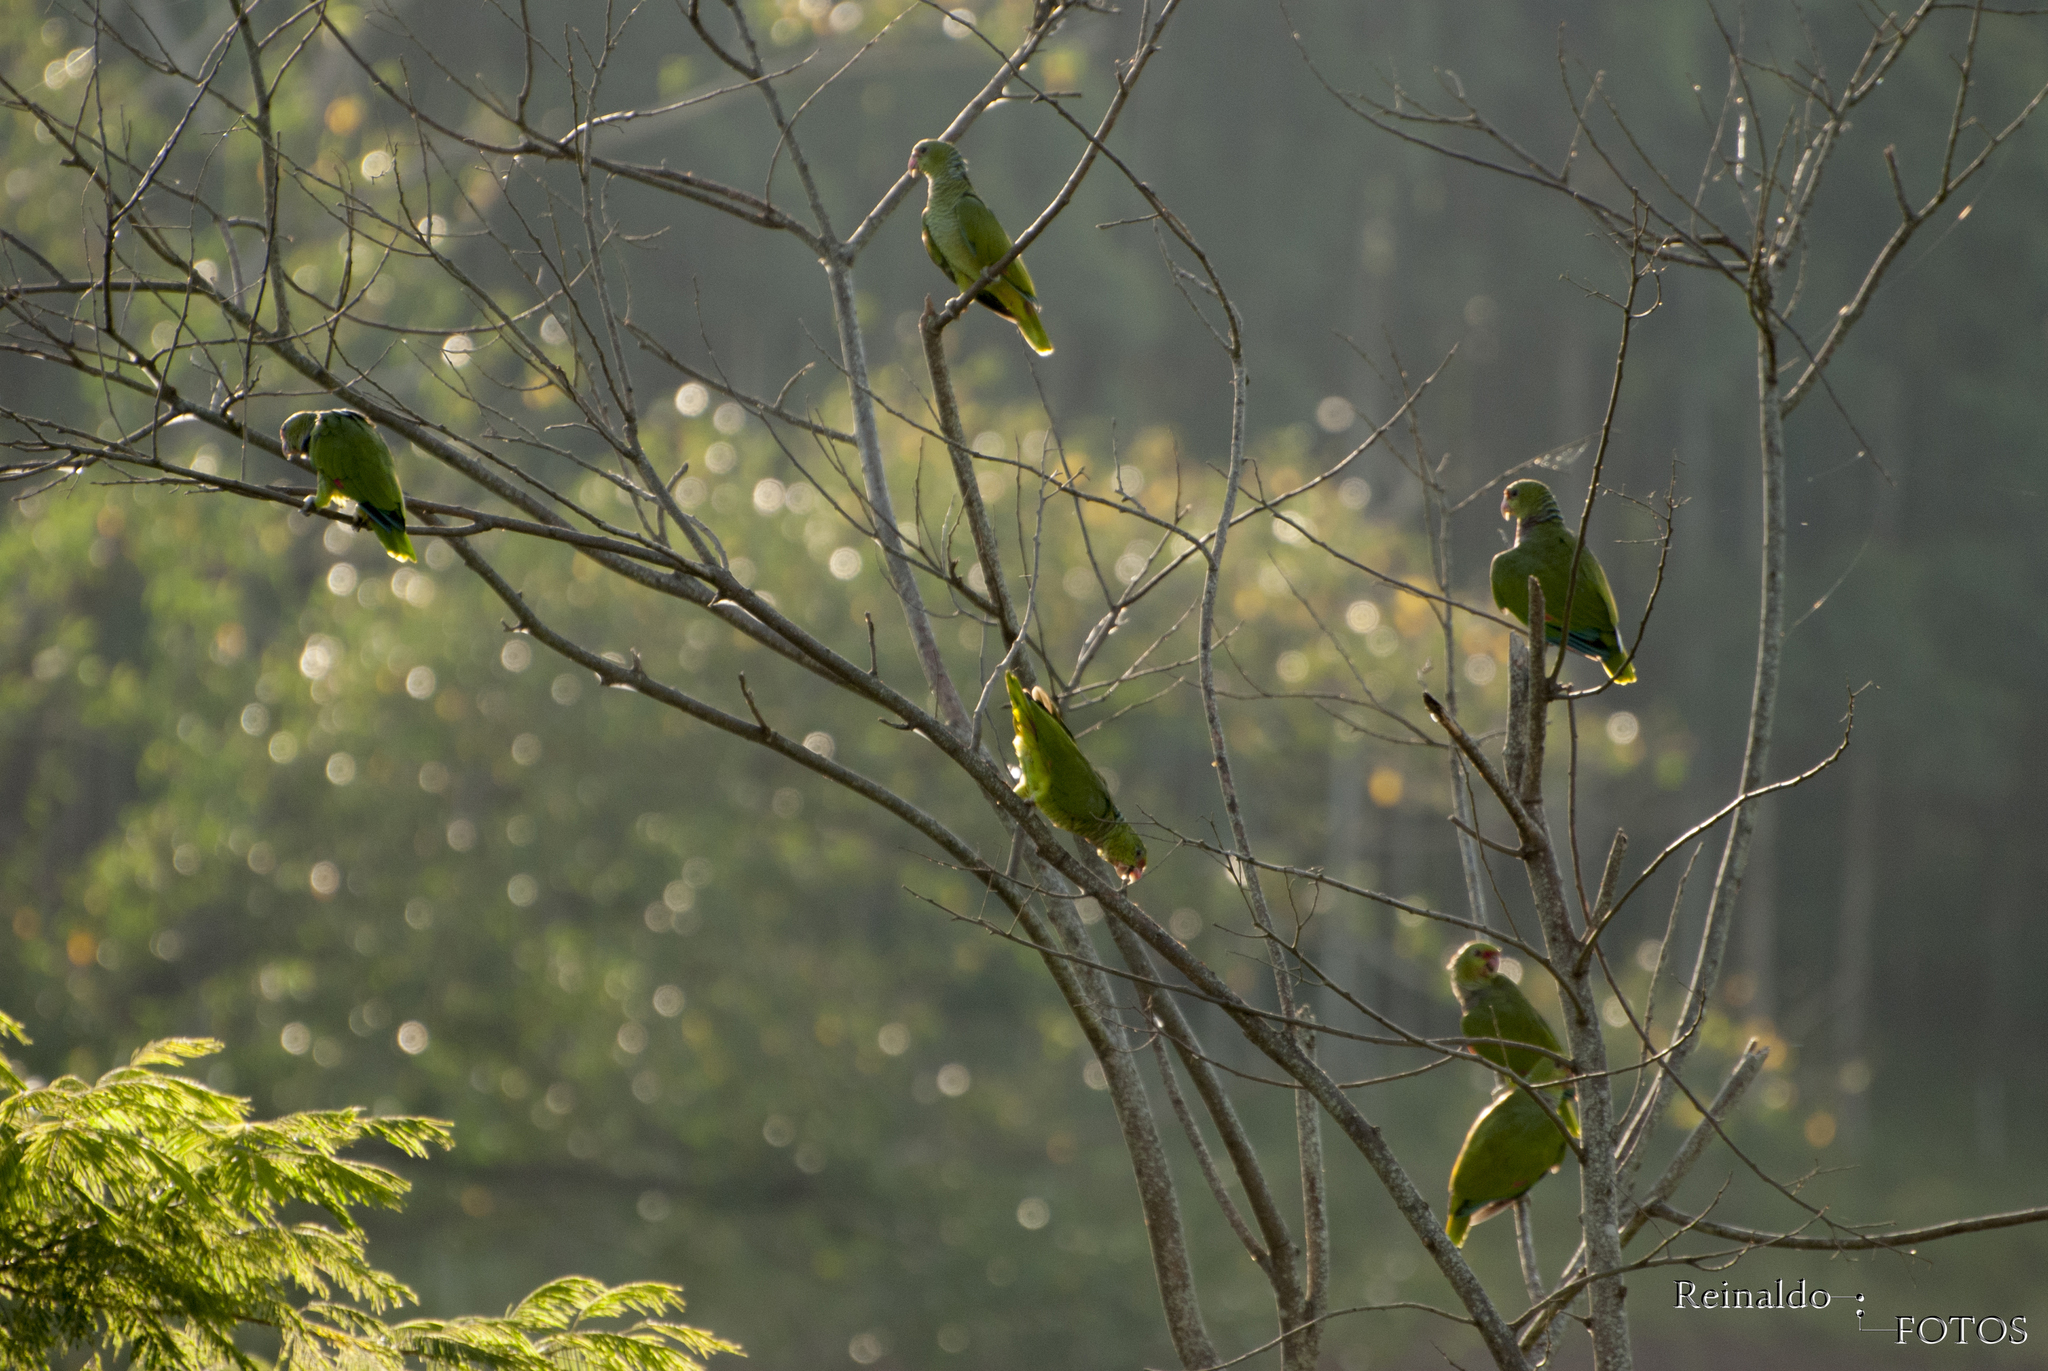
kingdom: Animalia
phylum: Chordata
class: Aves
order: Psittaciformes
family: Psittacidae
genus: Amazona
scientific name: Amazona vinacea
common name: Vinaceous-breasted amazon
